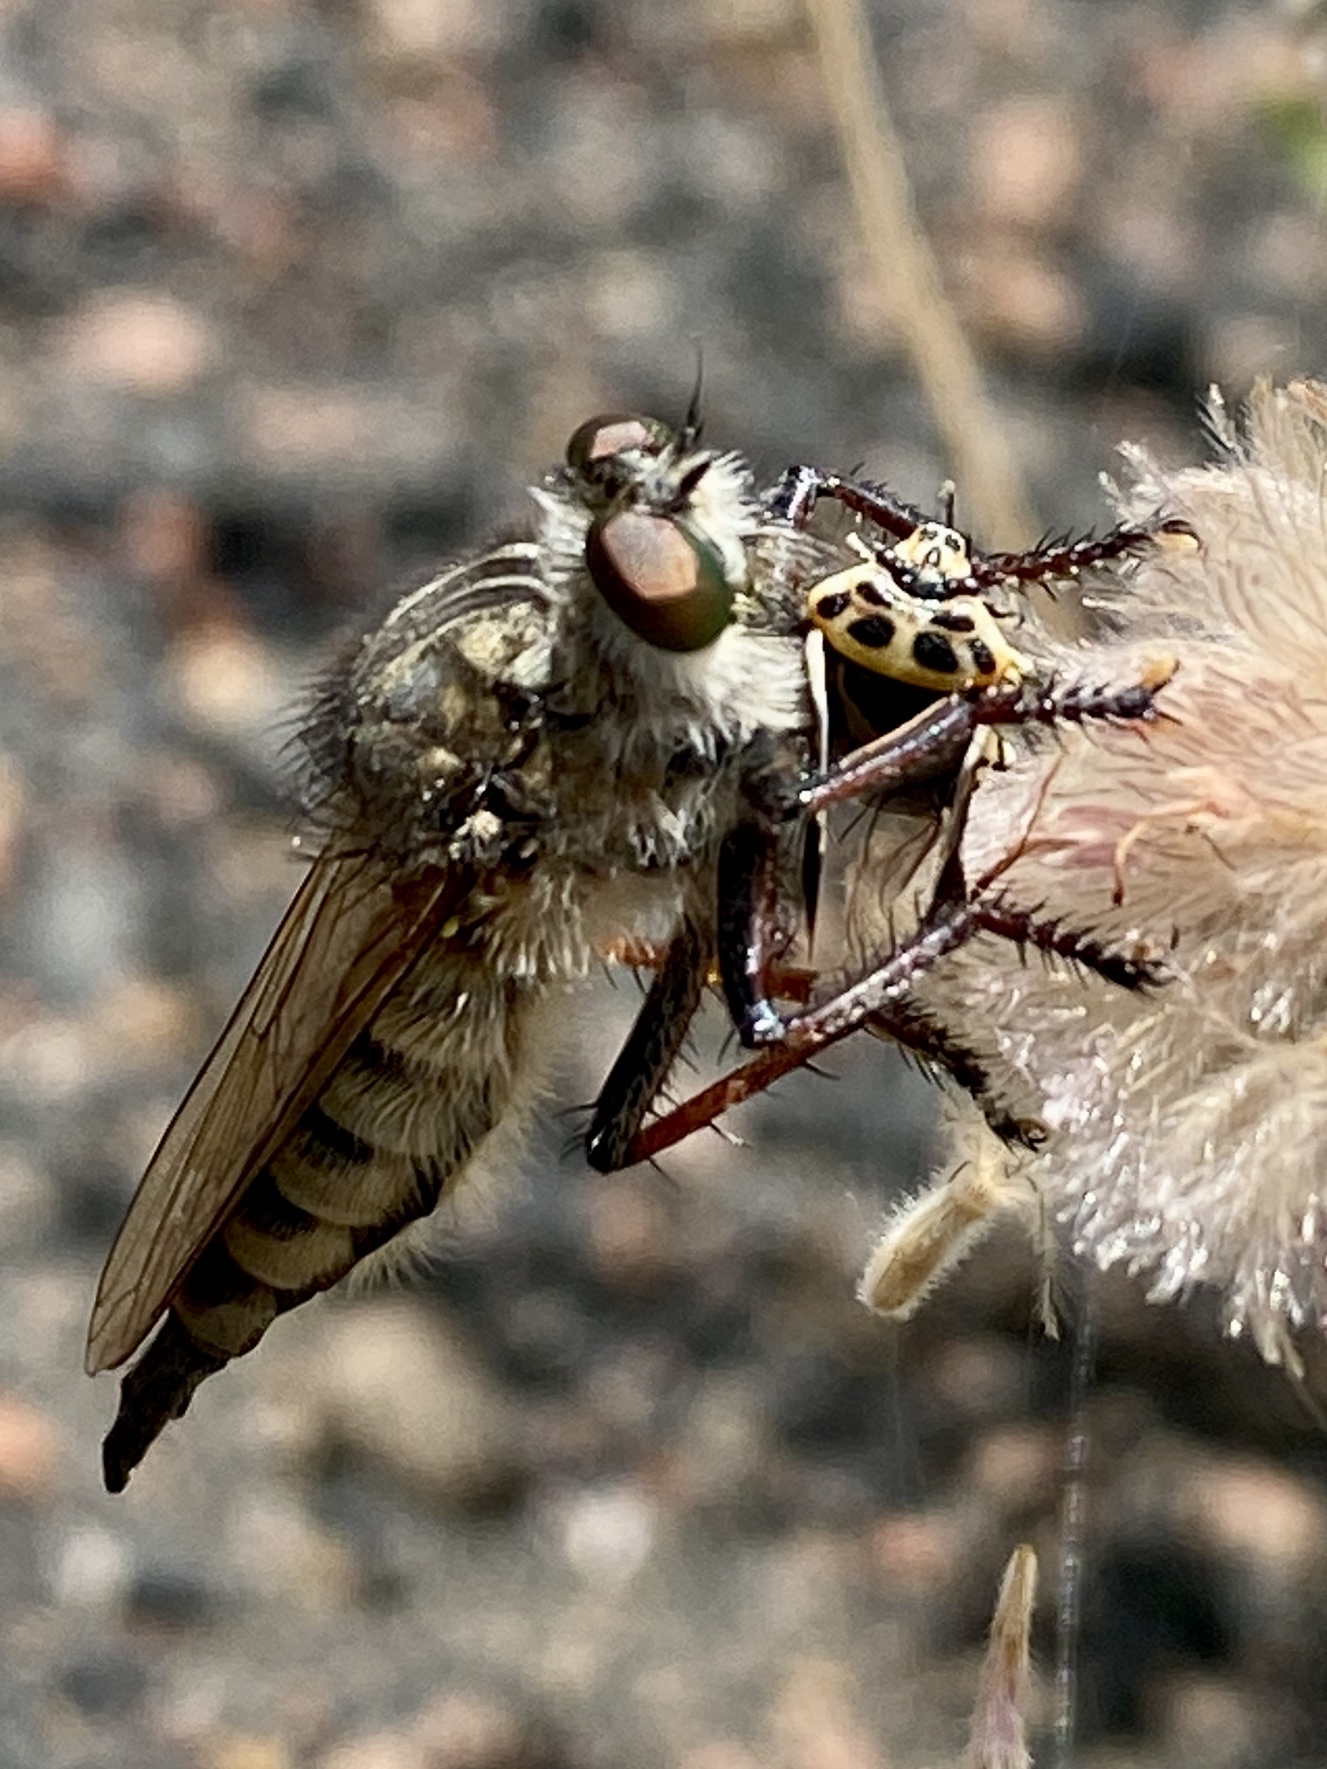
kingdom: Animalia
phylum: Arthropoda
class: Insecta
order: Hemiptera
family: Pentatomidae
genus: Eurydema
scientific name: Eurydema ornata
